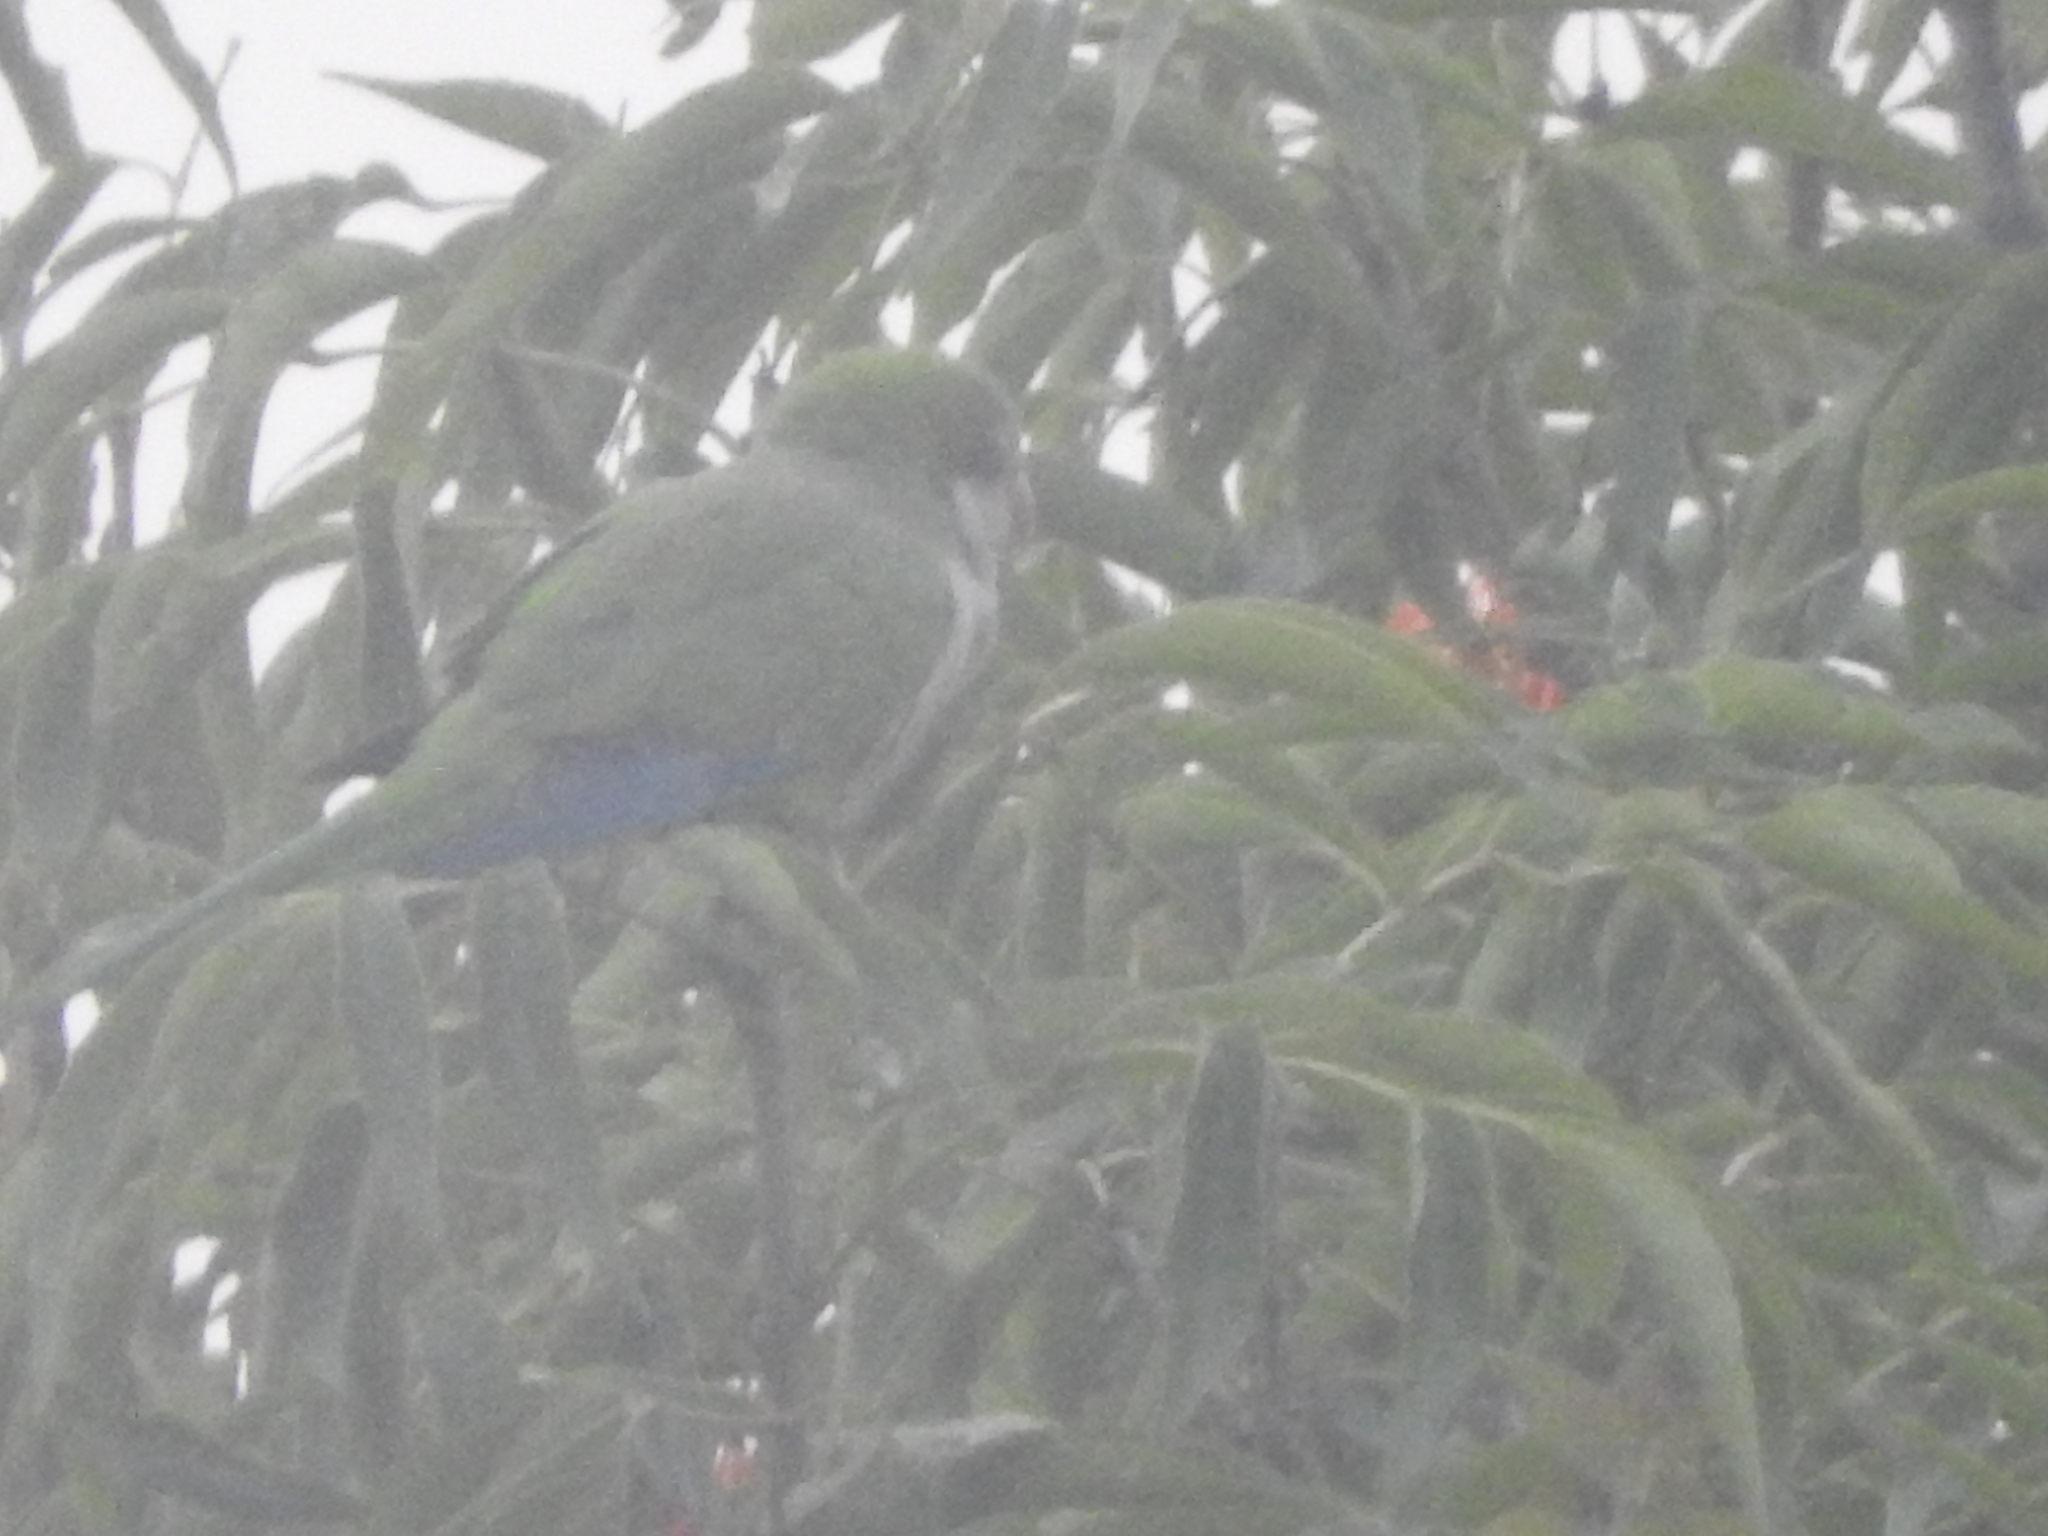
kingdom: Animalia
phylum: Chordata
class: Aves
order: Psittaciformes
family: Psittacidae
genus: Myiopsitta
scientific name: Myiopsitta monachus
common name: Monk parakeet
